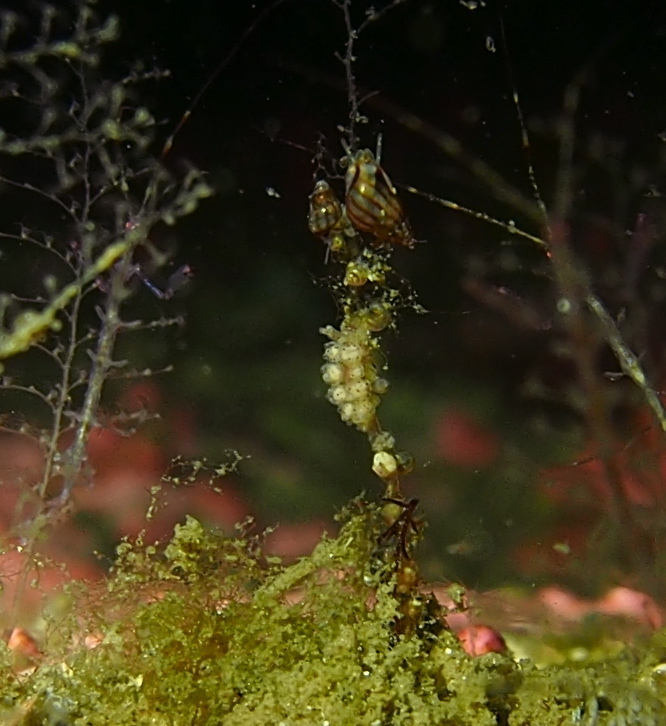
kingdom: Animalia
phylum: Mollusca
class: Gastropoda
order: Nudibranchia
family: Dotidae
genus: Doto
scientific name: Doto dunnei
